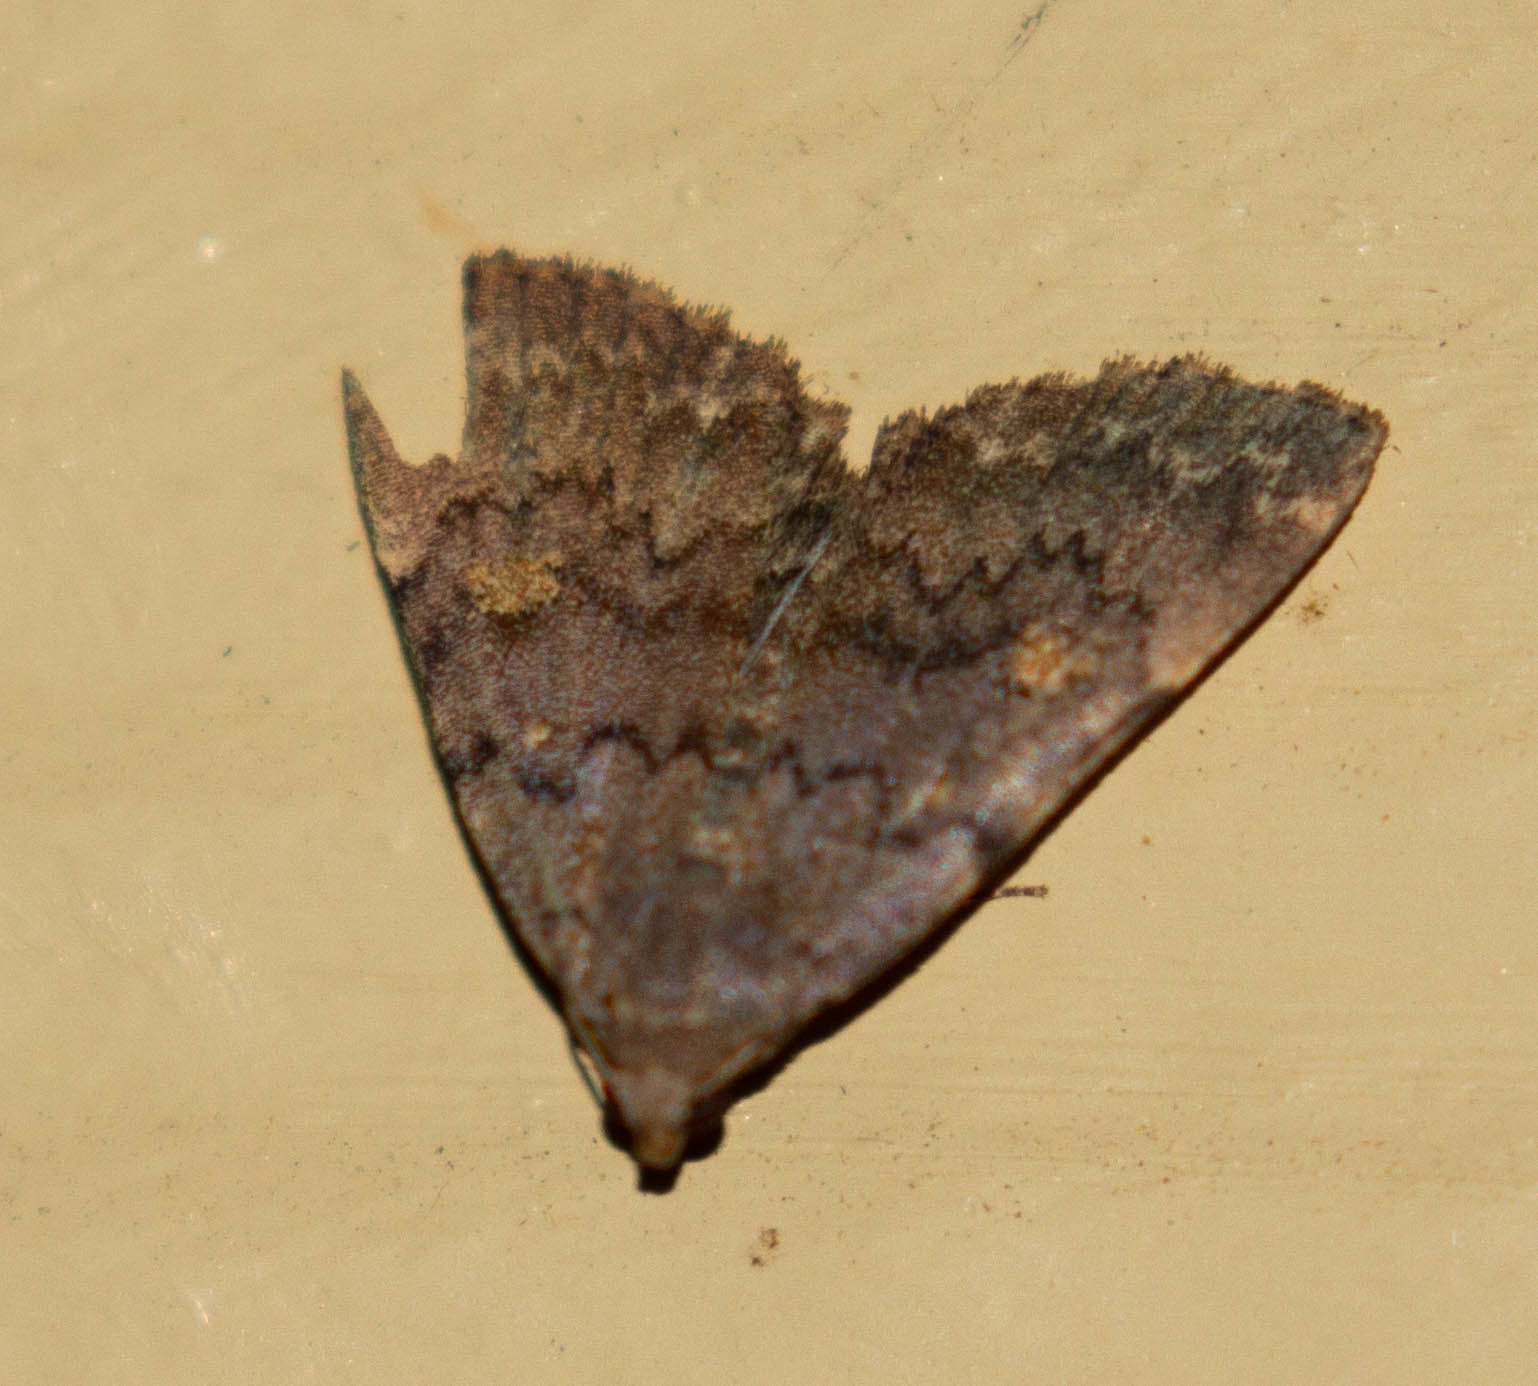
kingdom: Animalia
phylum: Arthropoda
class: Insecta
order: Lepidoptera
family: Erebidae
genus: Idia
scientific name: Idia aemula
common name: Common idia moth
